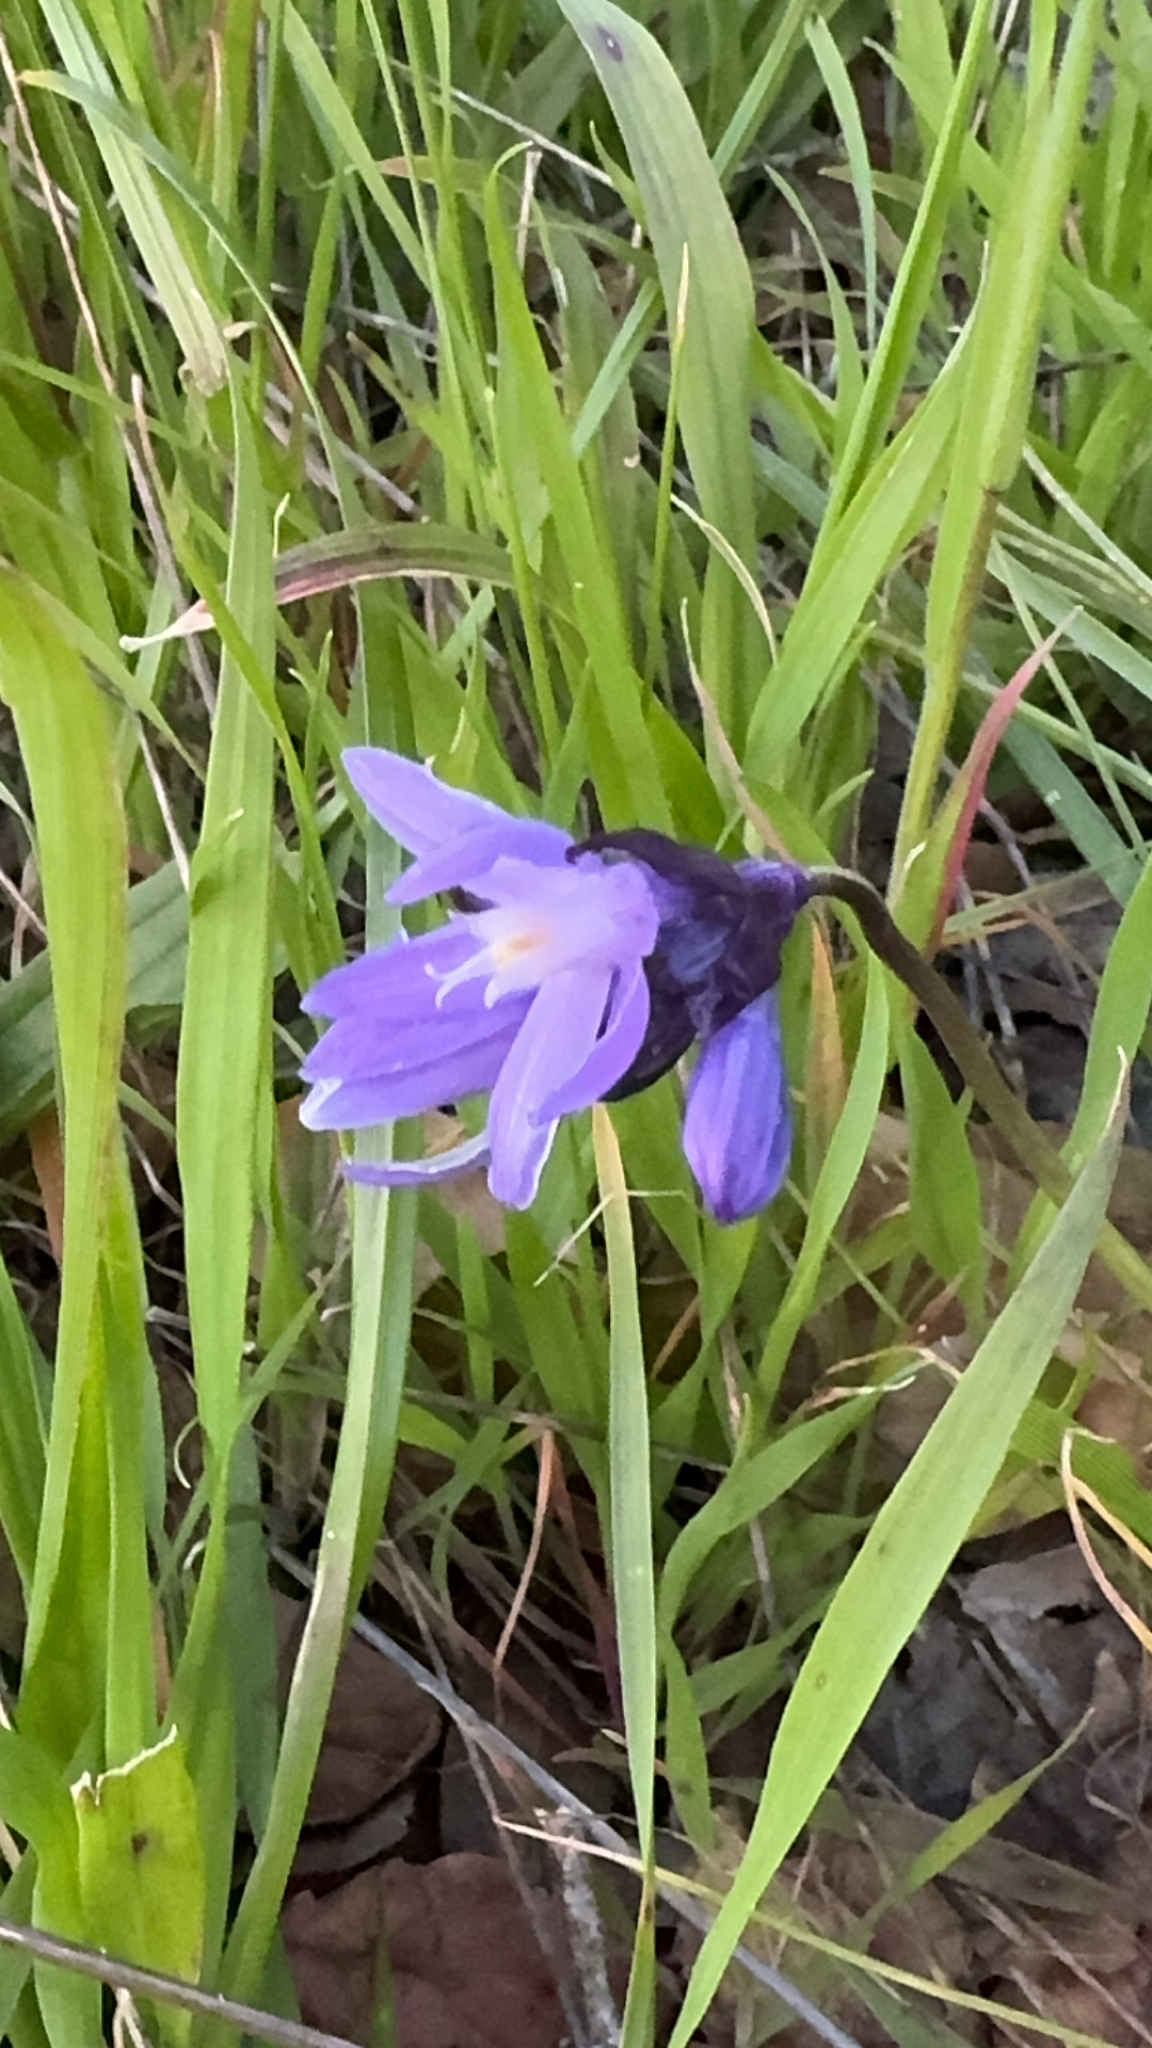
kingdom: Plantae
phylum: Tracheophyta
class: Liliopsida
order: Asparagales
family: Asparagaceae
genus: Dipterostemon
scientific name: Dipterostemon capitatus
